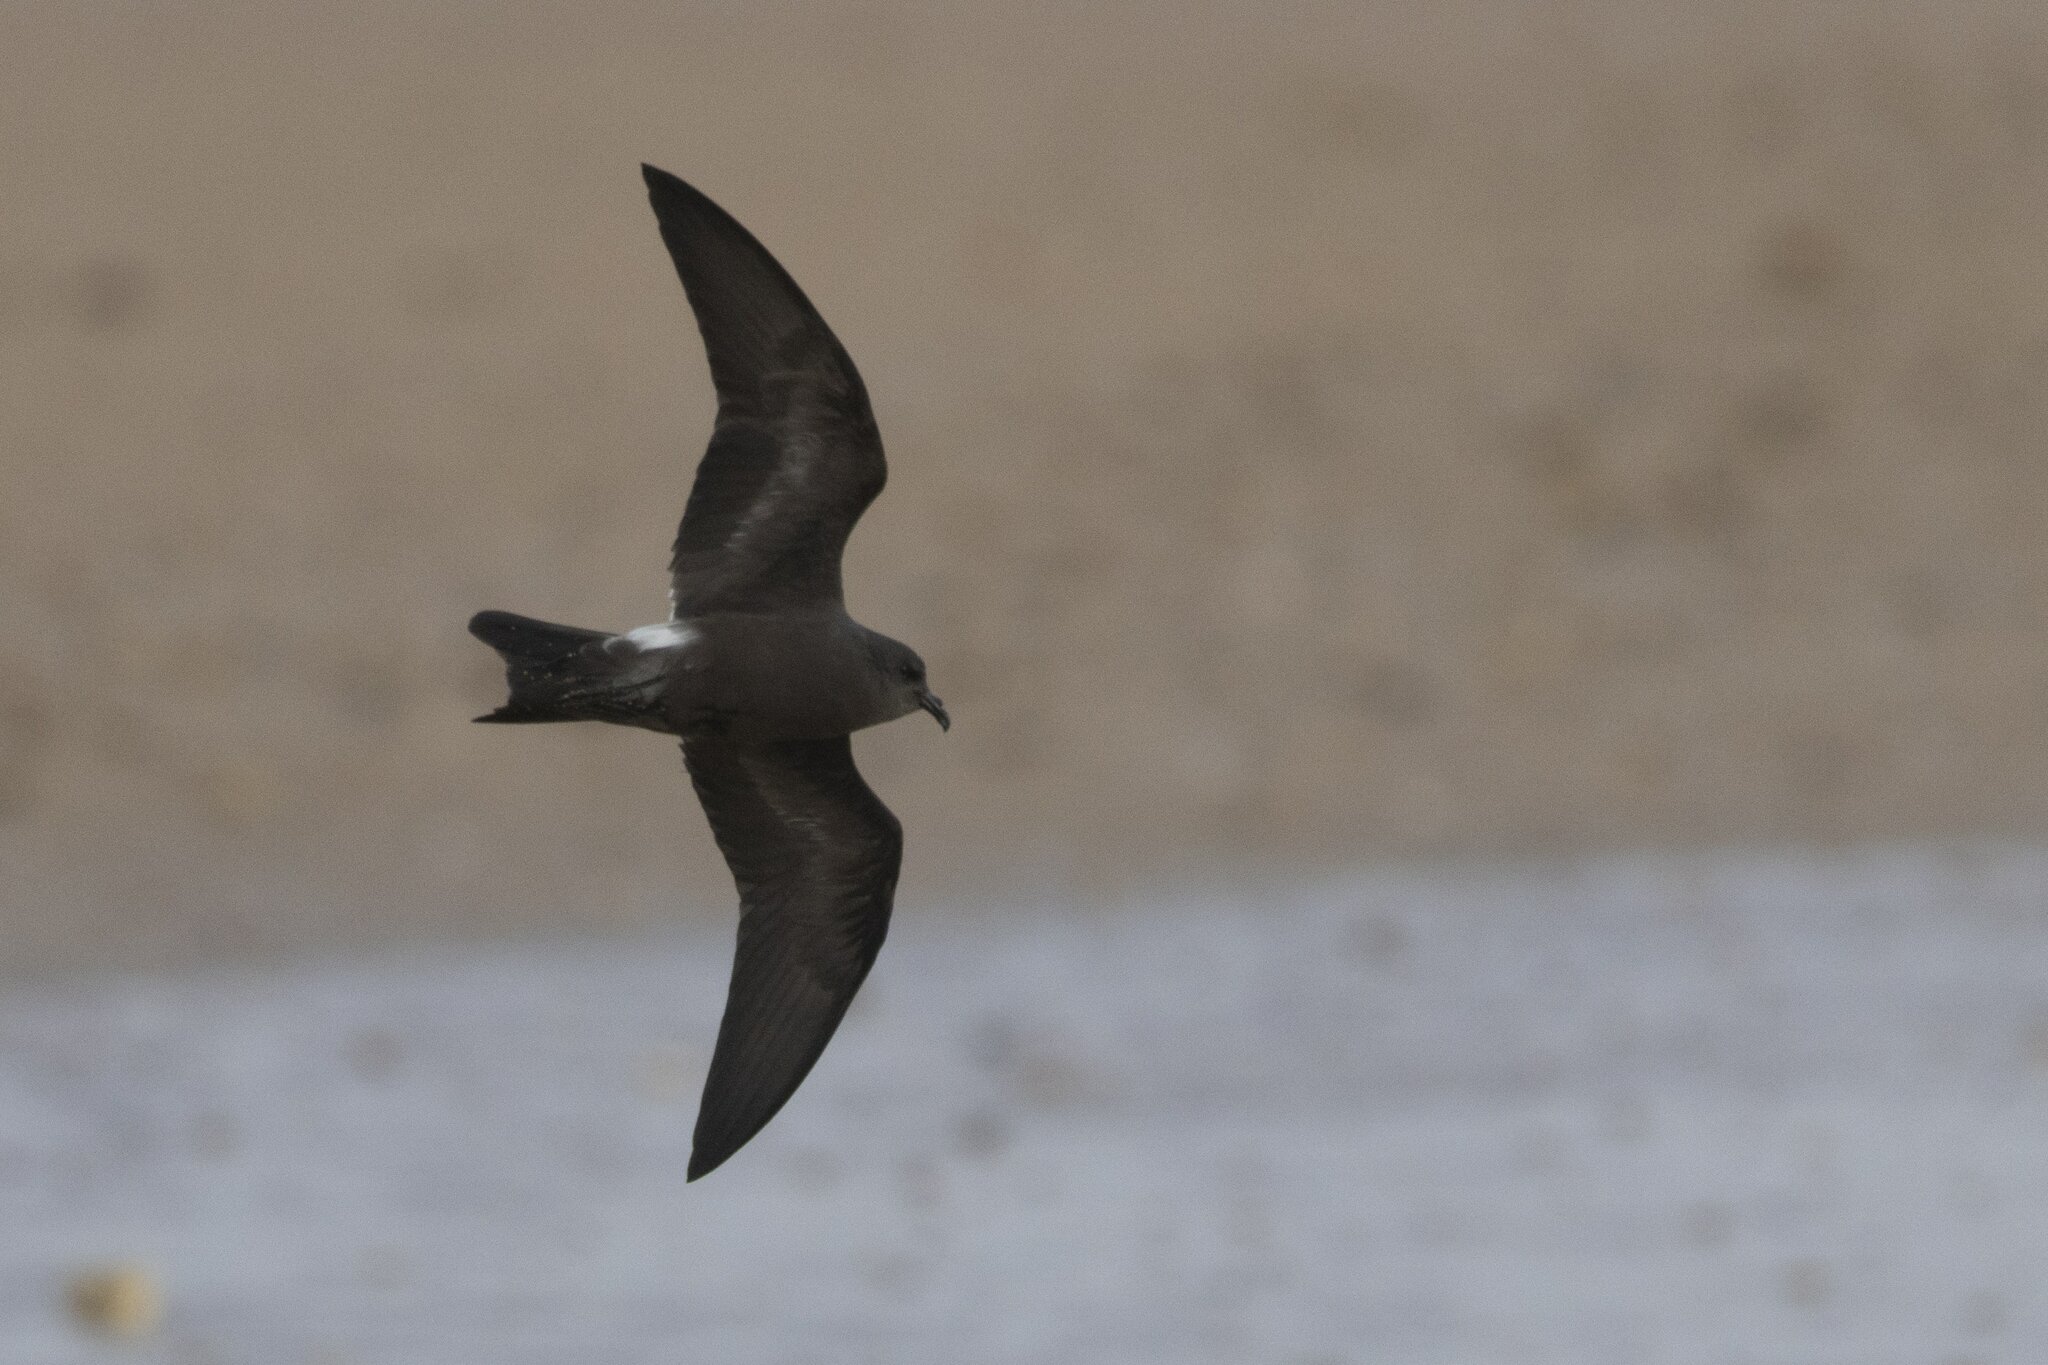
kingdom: Animalia
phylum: Chordata
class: Aves
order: Procellariiformes
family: Hydrobatidae
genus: Oceanodroma
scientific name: Oceanodroma leucorhoa
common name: Leach's storm-petrel
